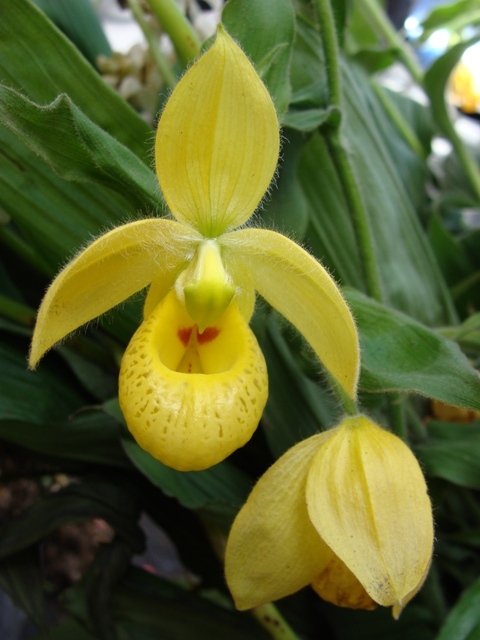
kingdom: Plantae
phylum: Tracheophyta
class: Liliopsida
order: Asparagales
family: Orchidaceae
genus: Cypripedium
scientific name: Cypripedium irapeanum
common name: Irapeao cypripedium
